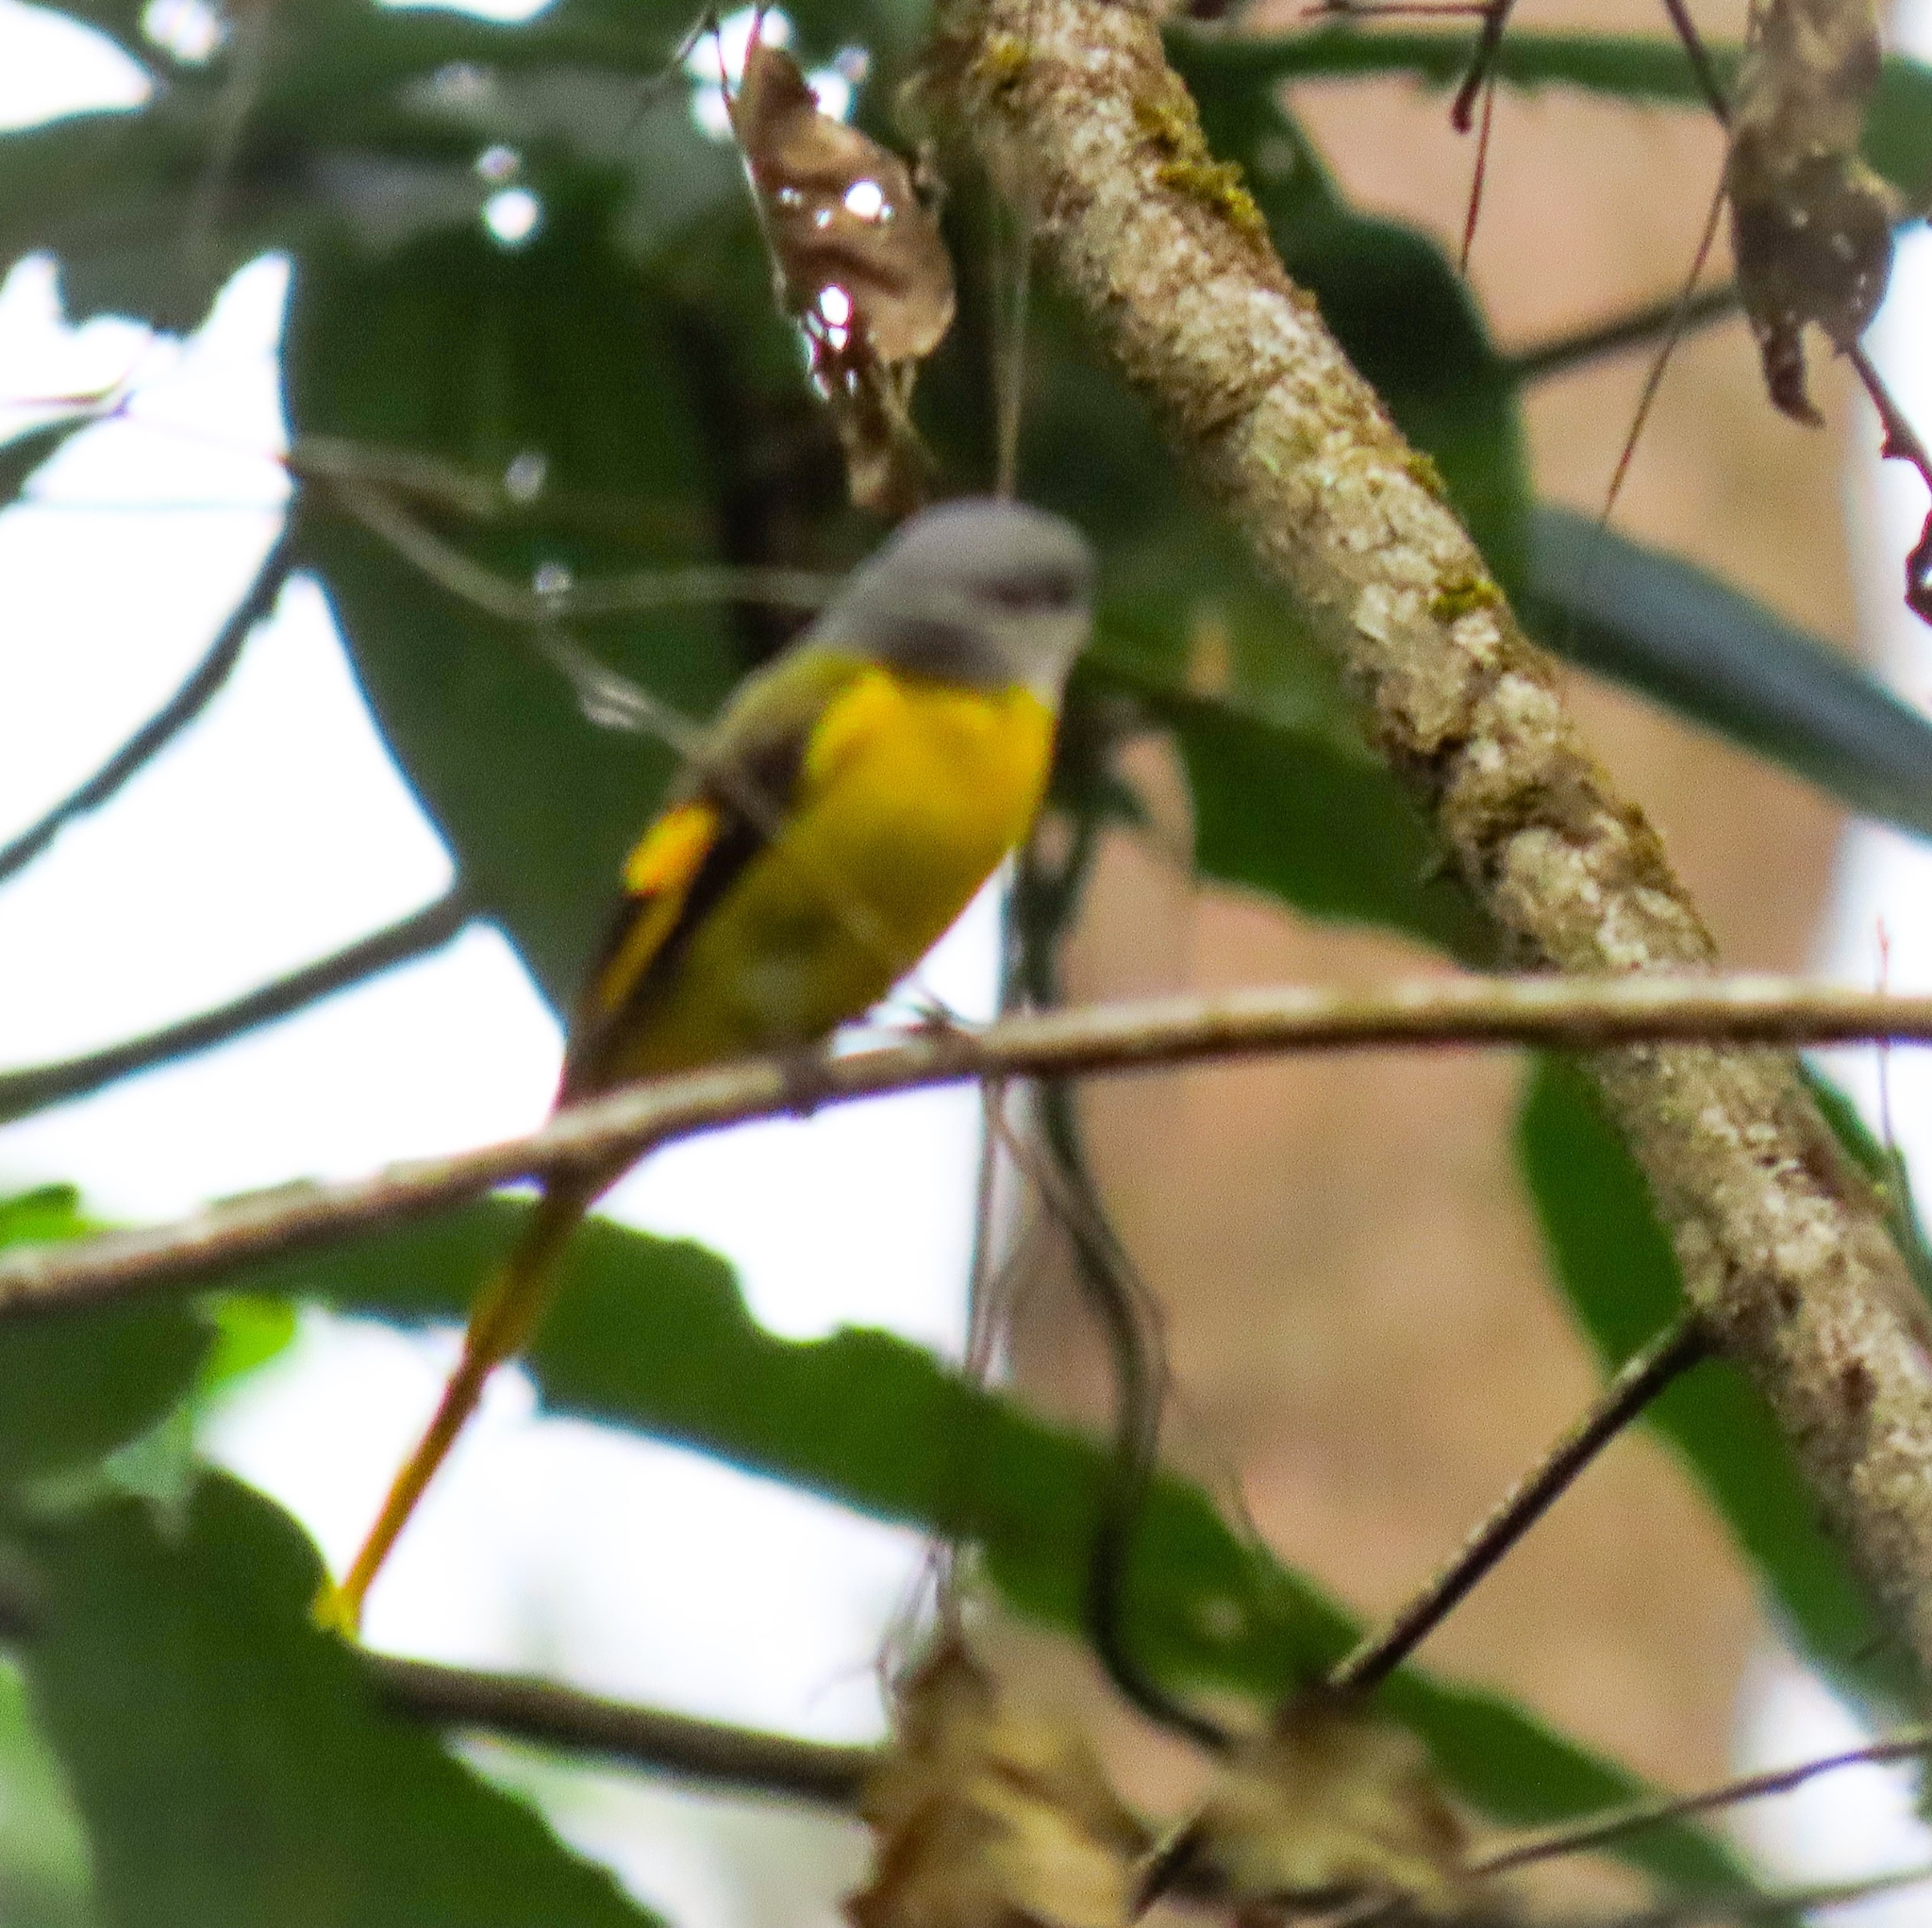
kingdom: Animalia
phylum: Chordata
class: Aves
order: Passeriformes
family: Campephagidae
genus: Pericrocotus
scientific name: Pericrocotus solaris
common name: Grey-chinned minivet
